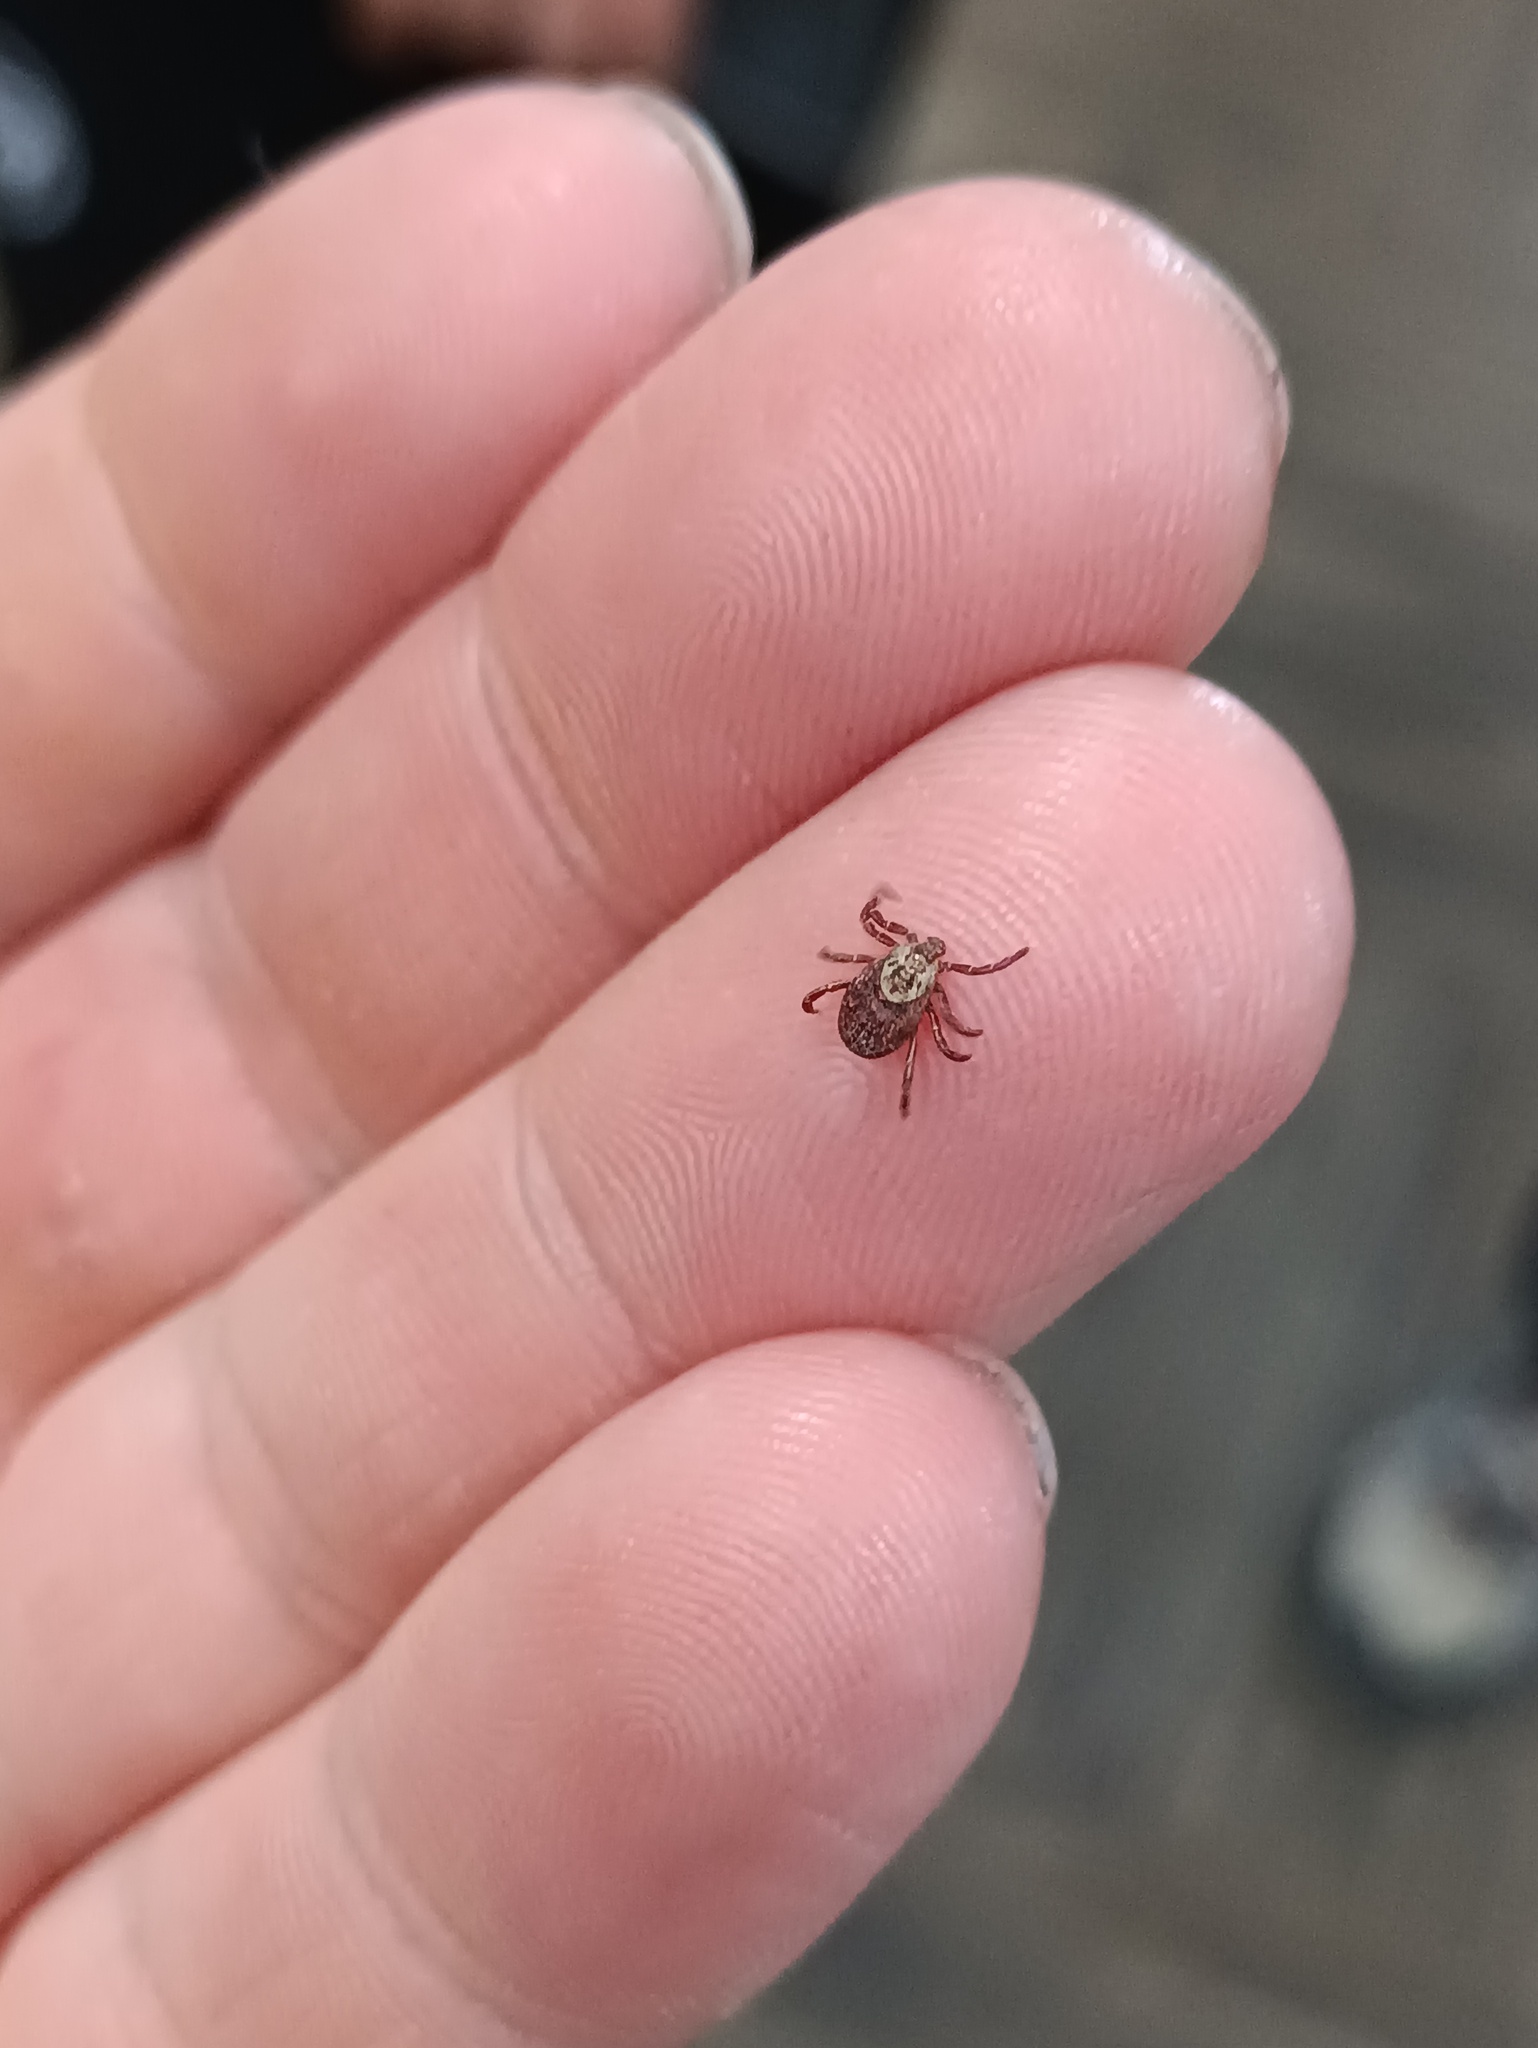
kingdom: Animalia
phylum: Arthropoda
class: Arachnida
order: Ixodida
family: Ixodidae
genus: Dermacentor
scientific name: Dermacentor reticulatus
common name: Ornate cow tick
